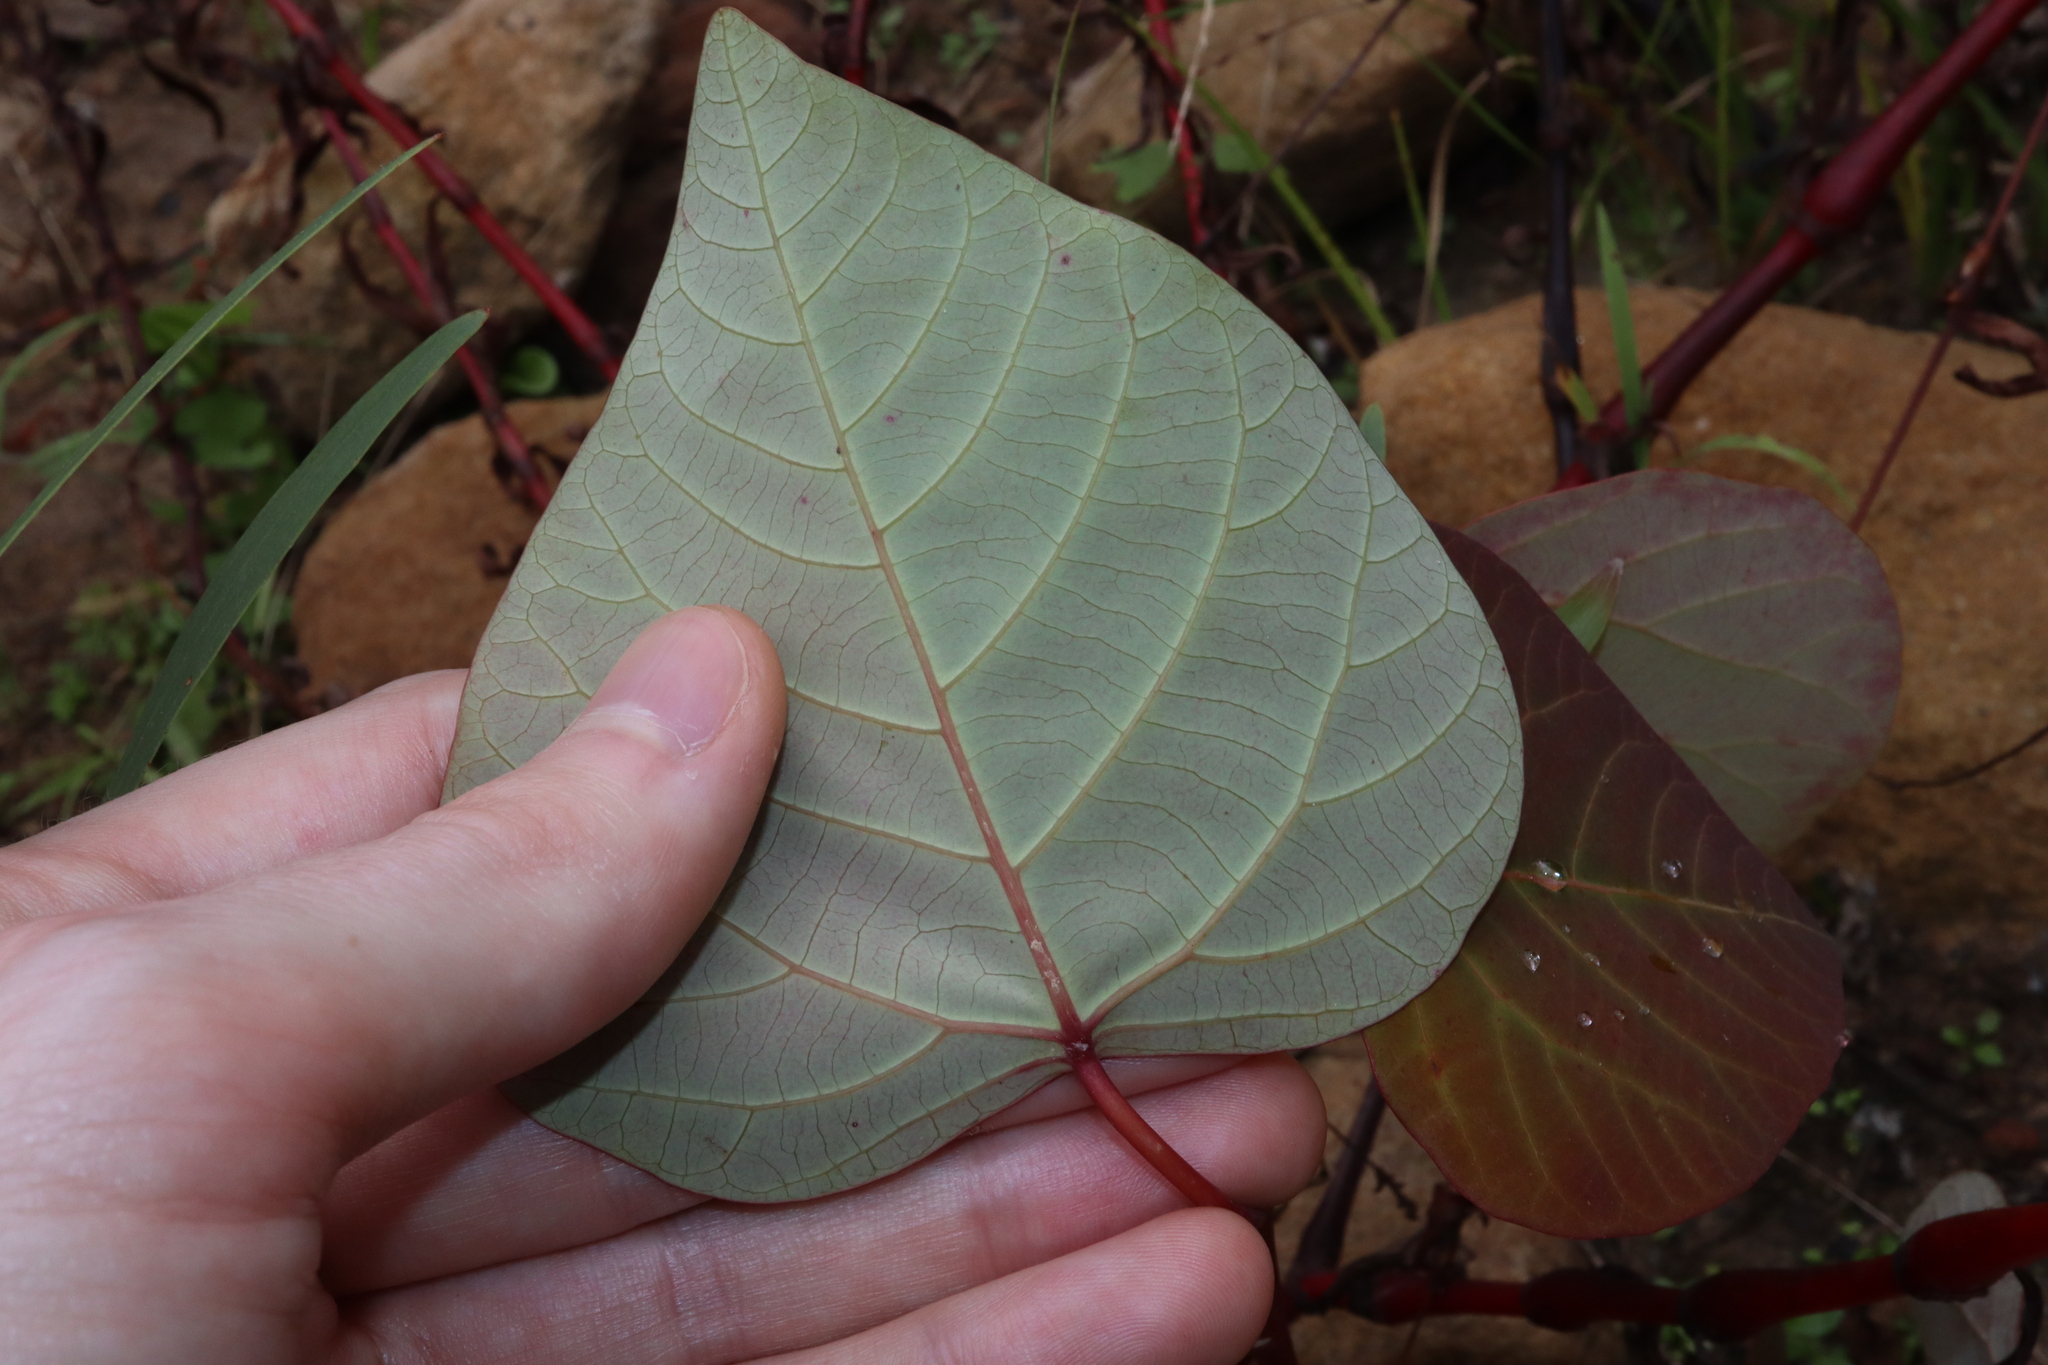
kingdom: Plantae
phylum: Tracheophyta
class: Magnoliopsida
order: Malpighiales
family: Euphorbiaceae
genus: Homalanthus
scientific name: Homalanthus populifolius
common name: Queensland poplar
